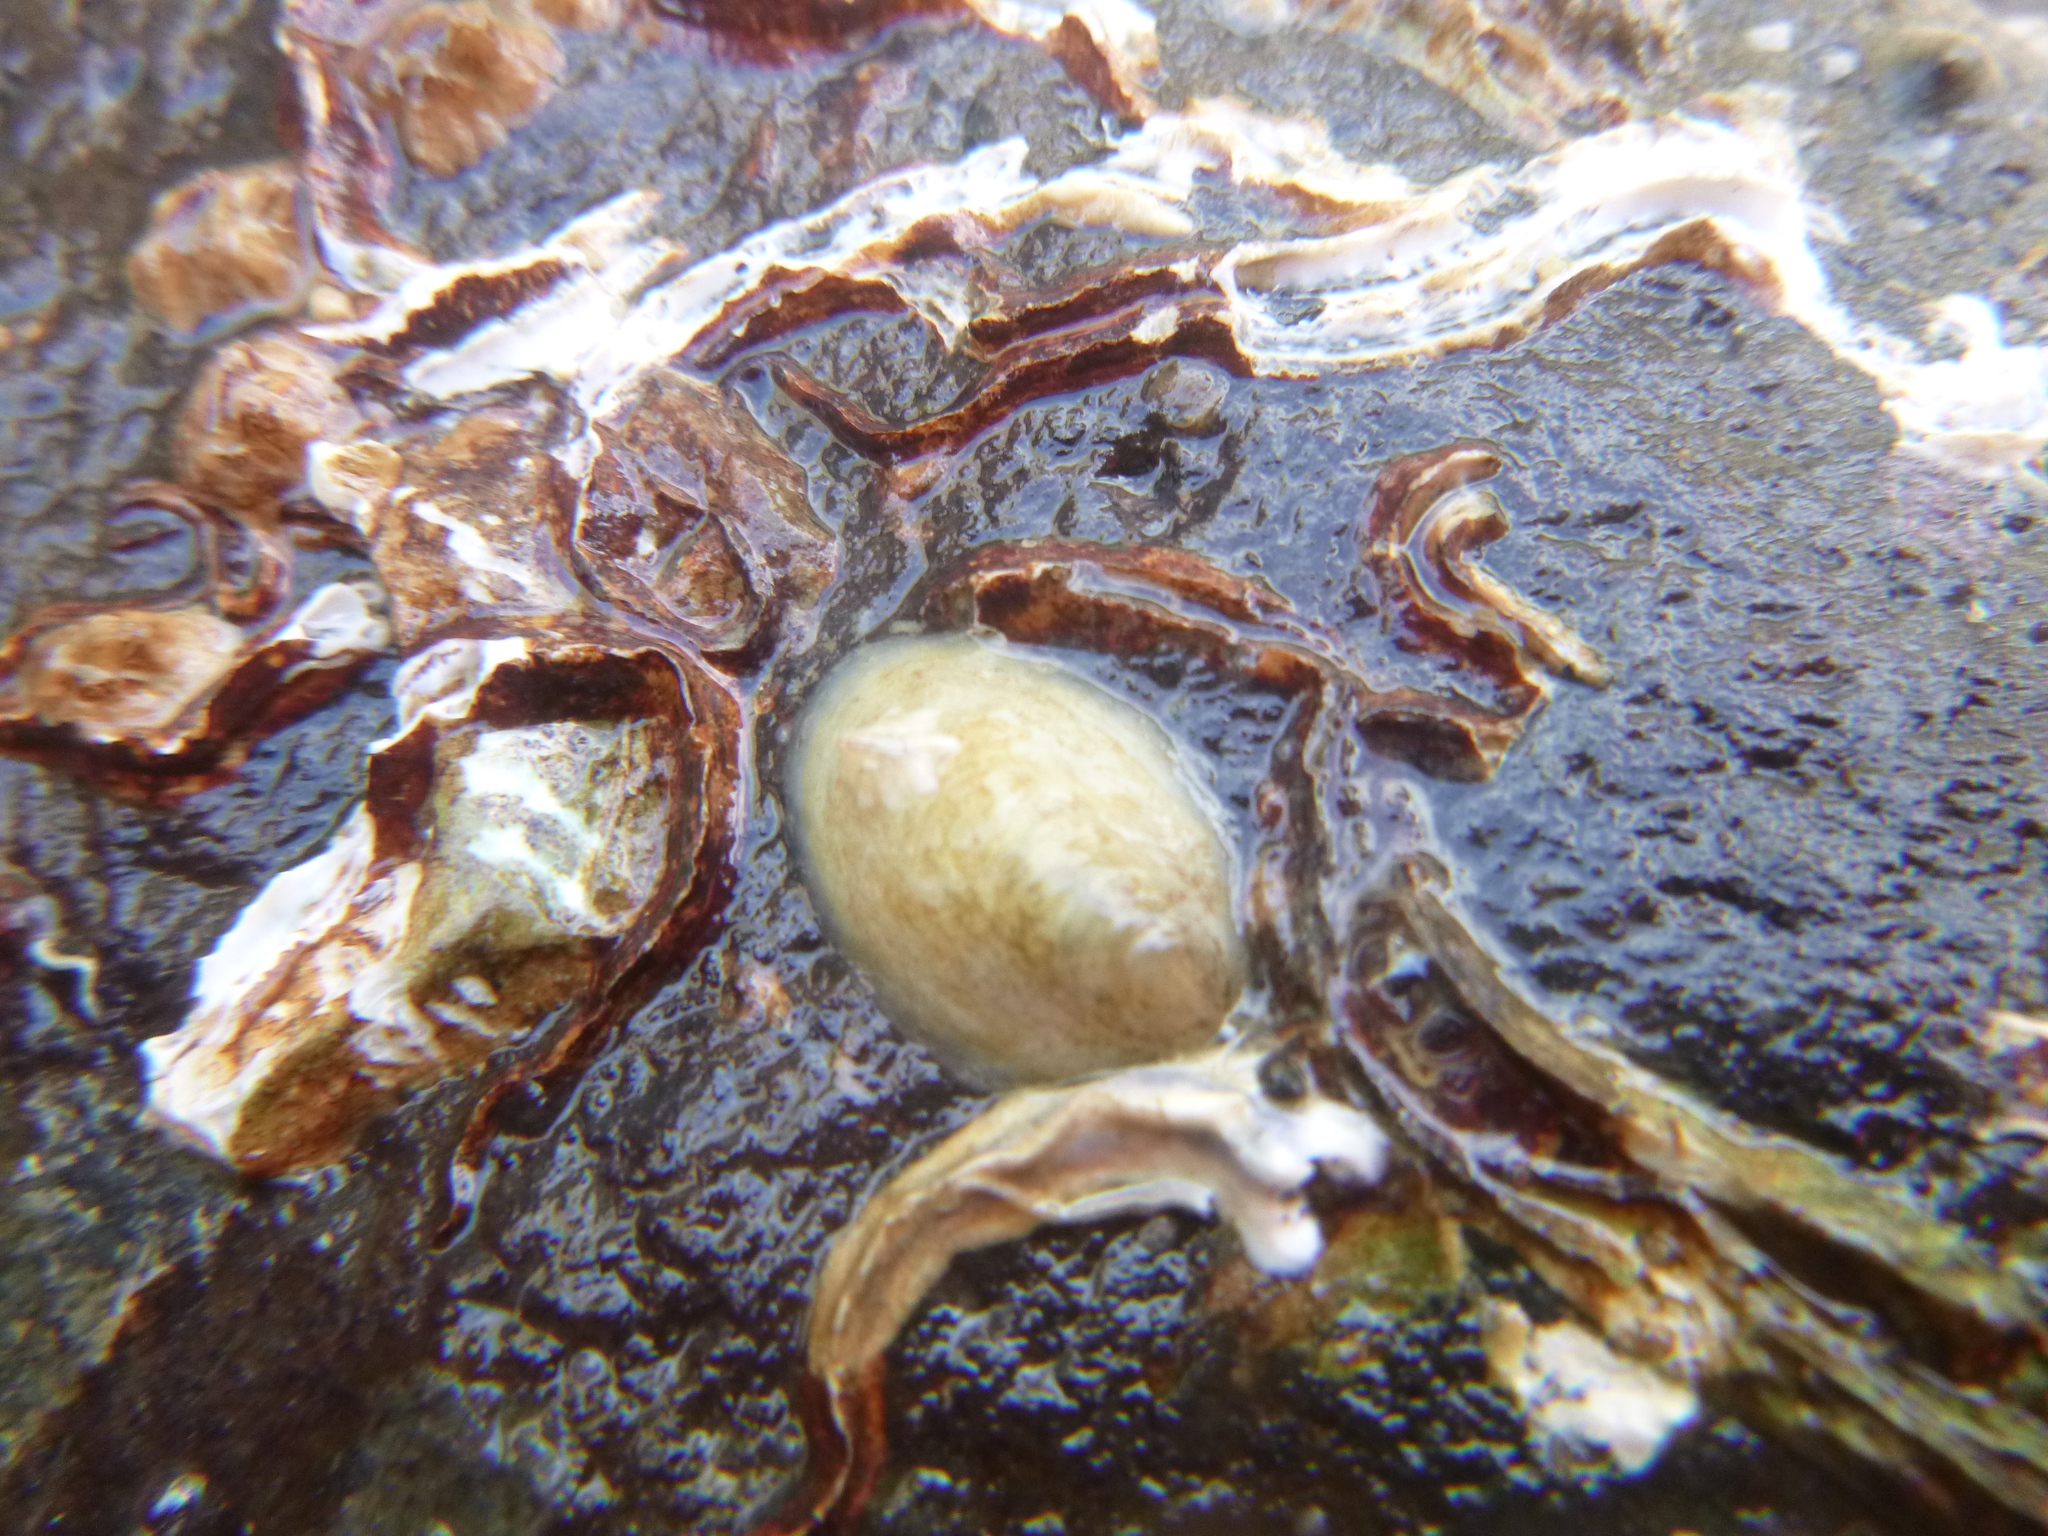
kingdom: Animalia
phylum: Mollusca
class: Gastropoda
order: Littorinimorpha
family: Calyptraeidae
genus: Maoricrypta
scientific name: Maoricrypta monoxyla
